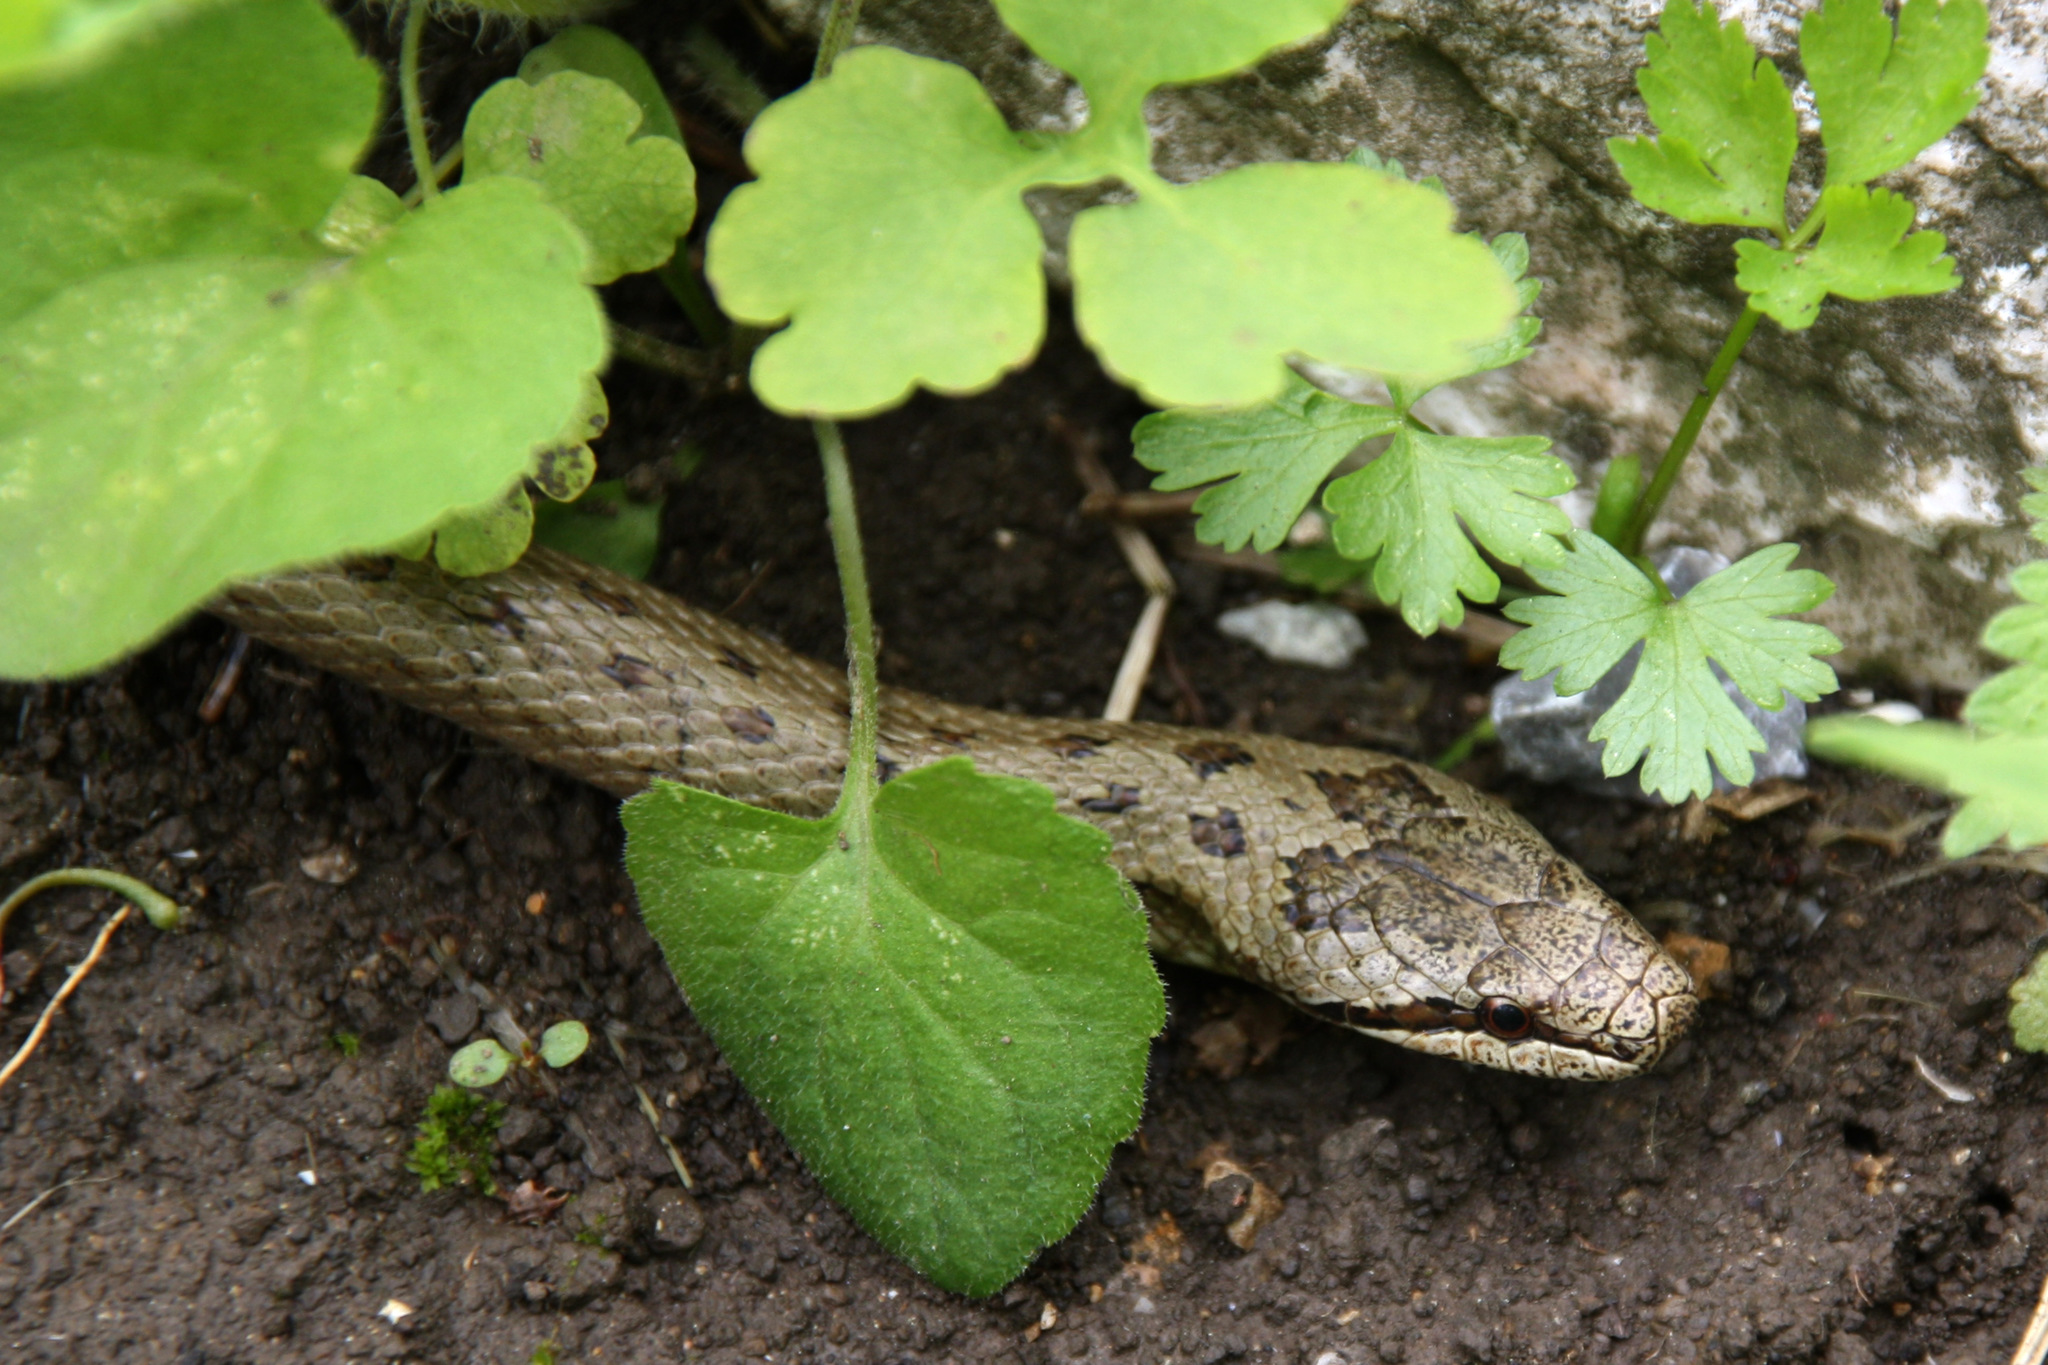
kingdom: Animalia
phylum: Chordata
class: Squamata
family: Colubridae
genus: Coronella
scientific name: Coronella austriaca
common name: Smooth snake
